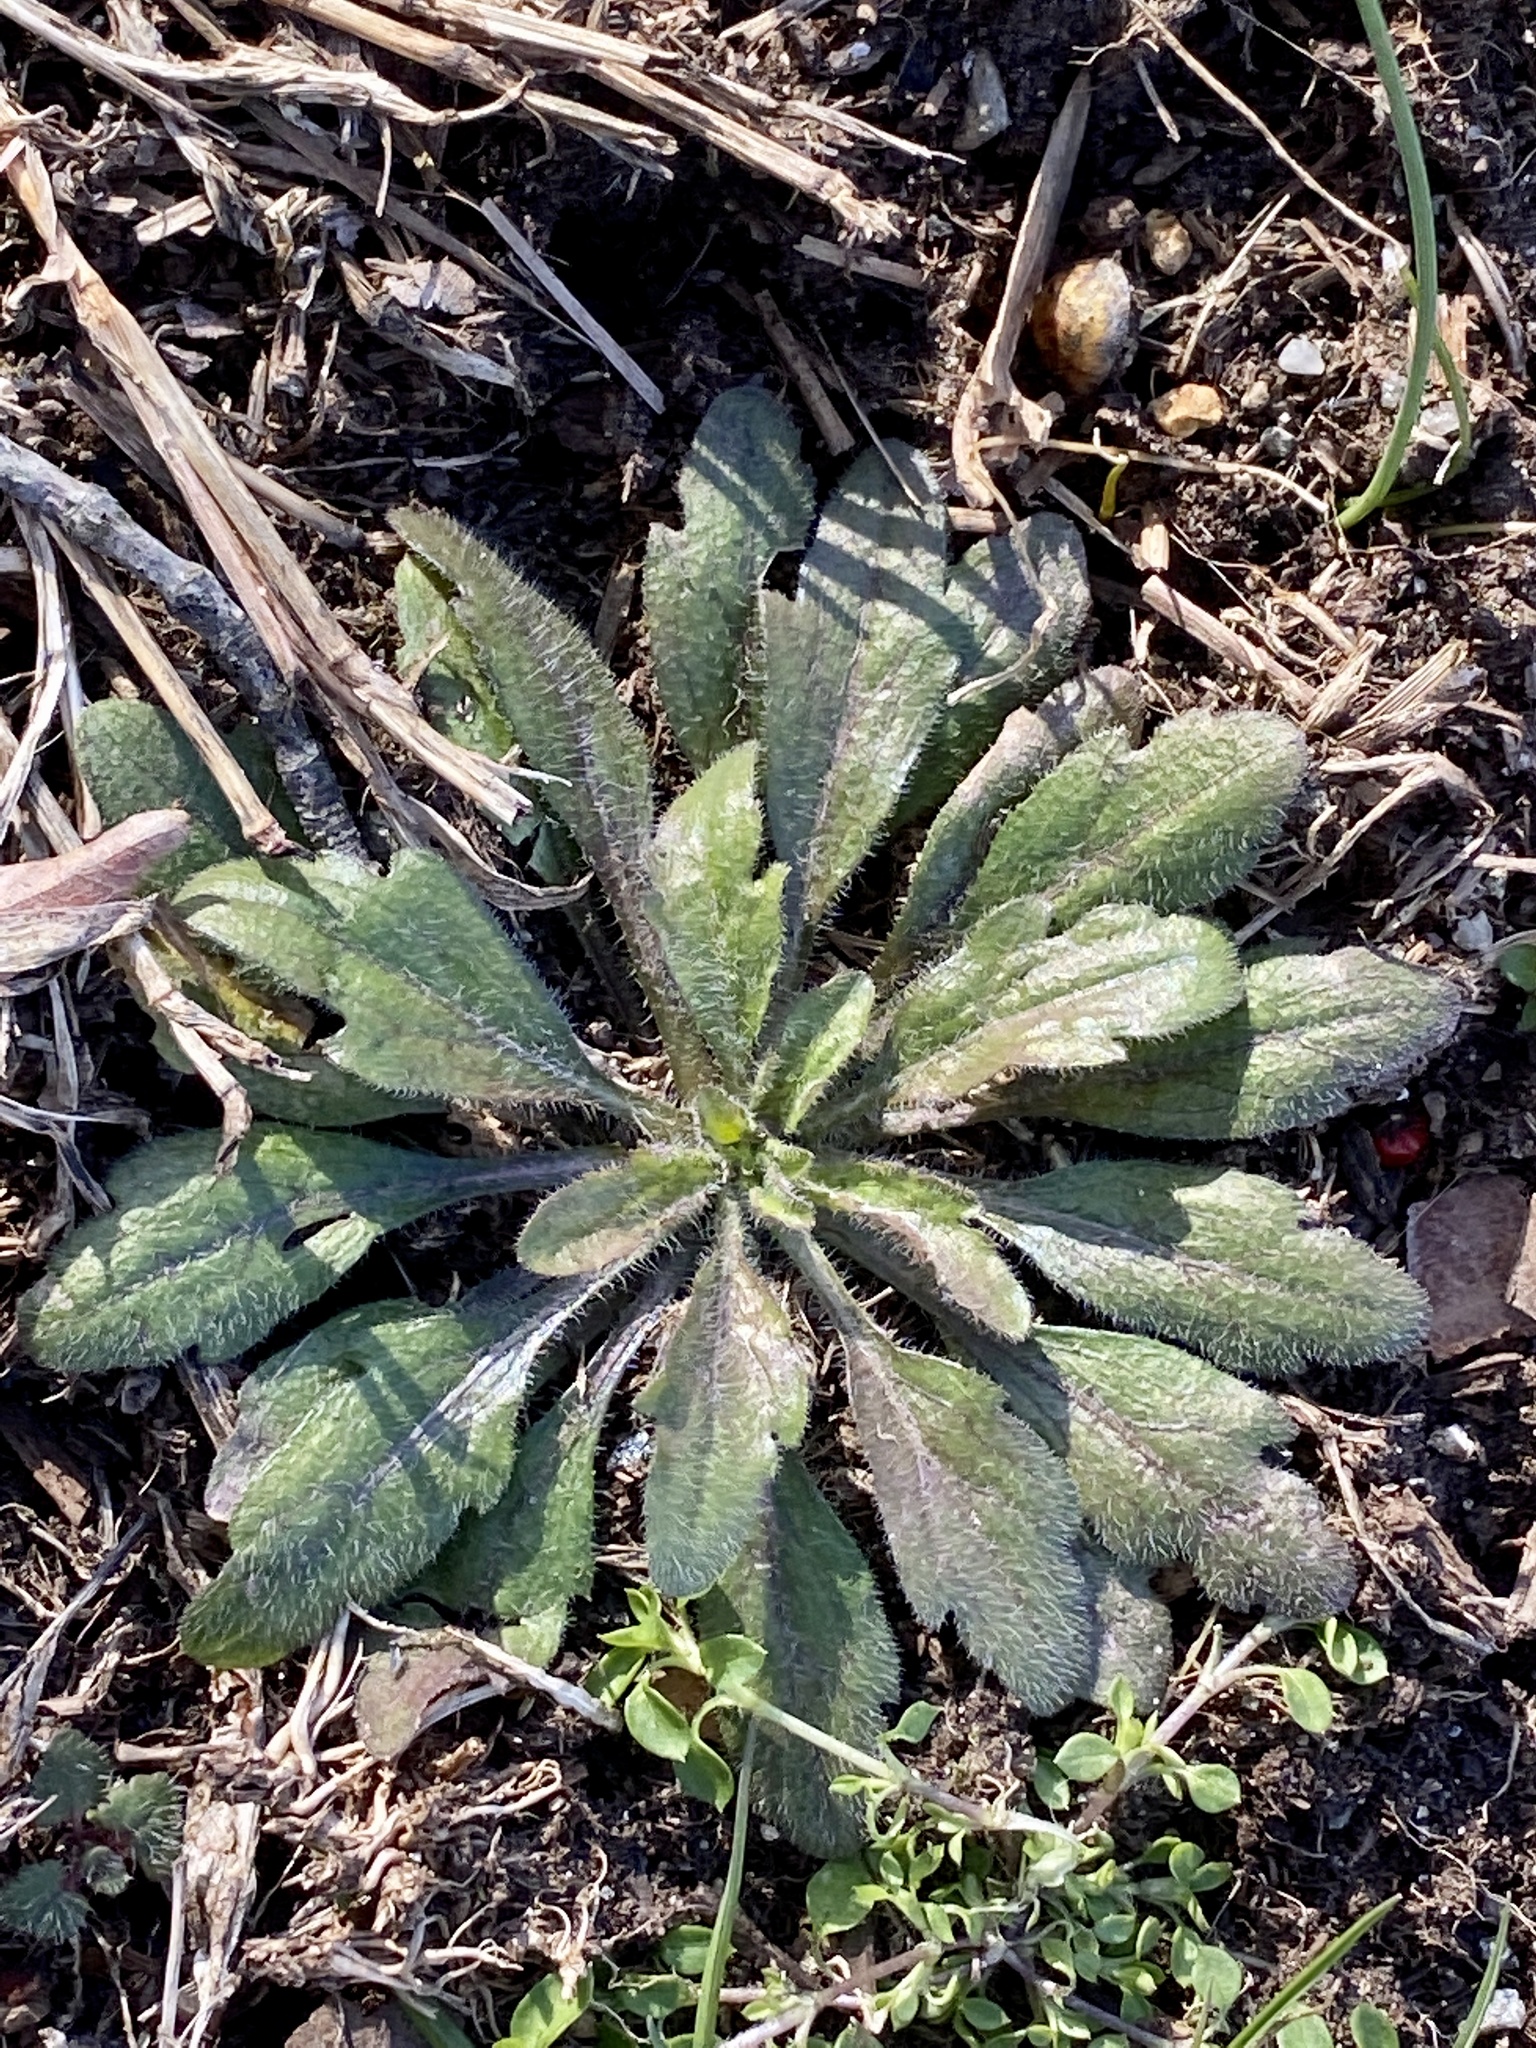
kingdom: Plantae
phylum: Tracheophyta
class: Magnoliopsida
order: Asterales
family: Asteraceae
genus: Erigeron
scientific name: Erigeron canadensis
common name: Canadian fleabane
